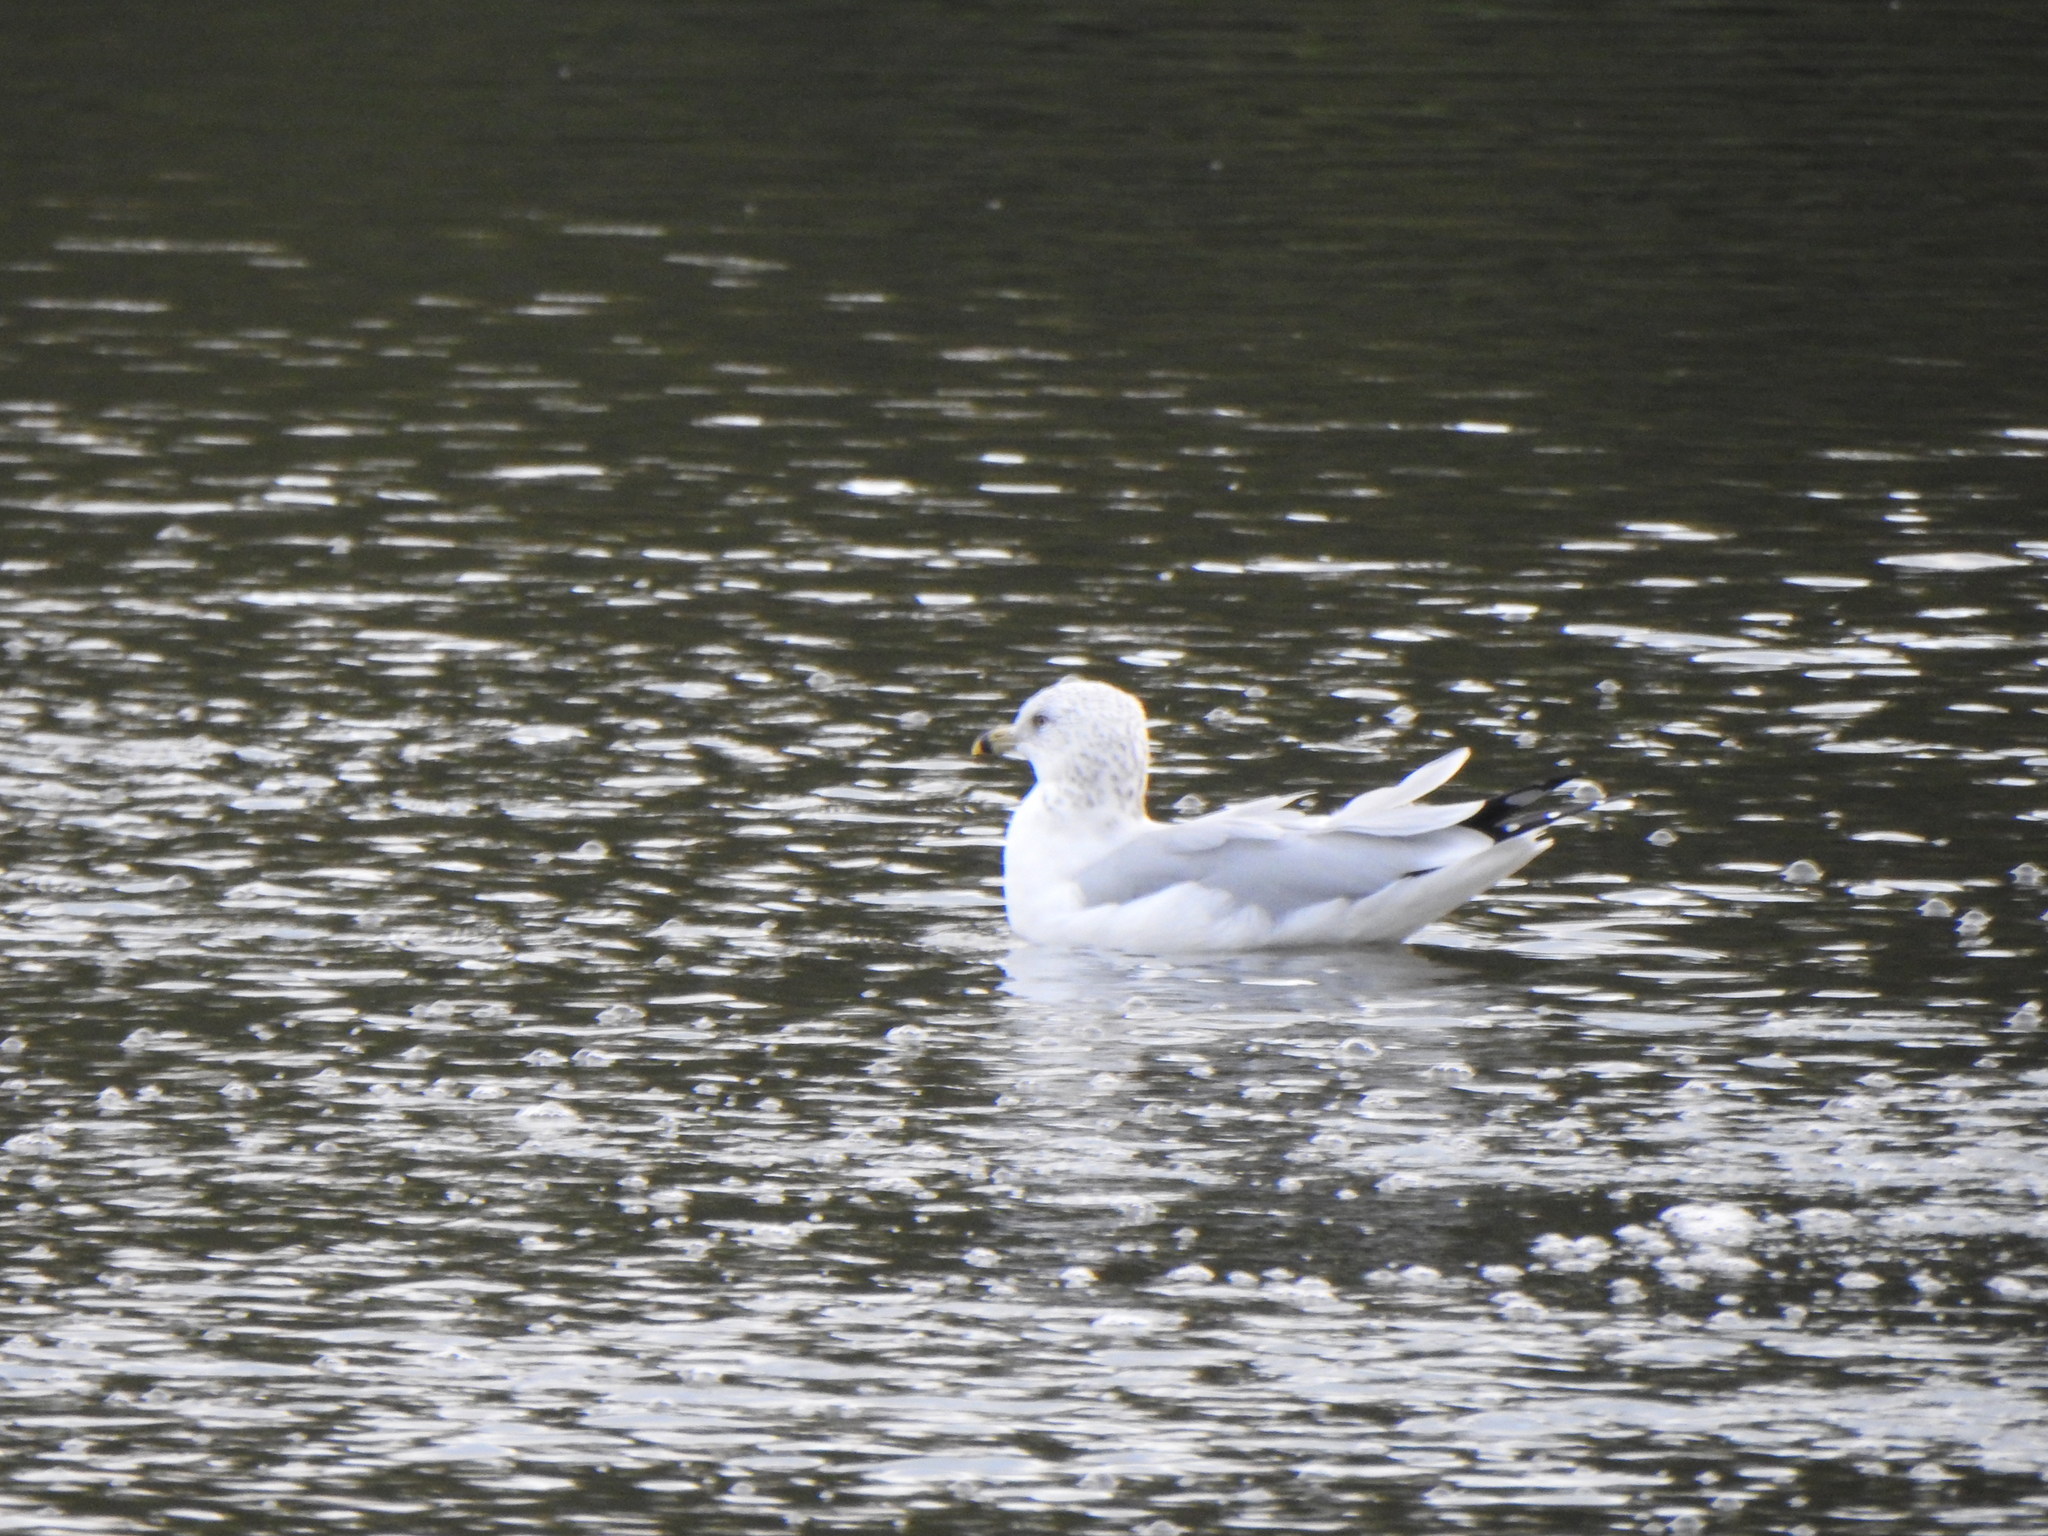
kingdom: Animalia
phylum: Chordata
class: Aves
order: Charadriiformes
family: Laridae
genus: Larus
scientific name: Larus delawarensis
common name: Ring-billed gull
